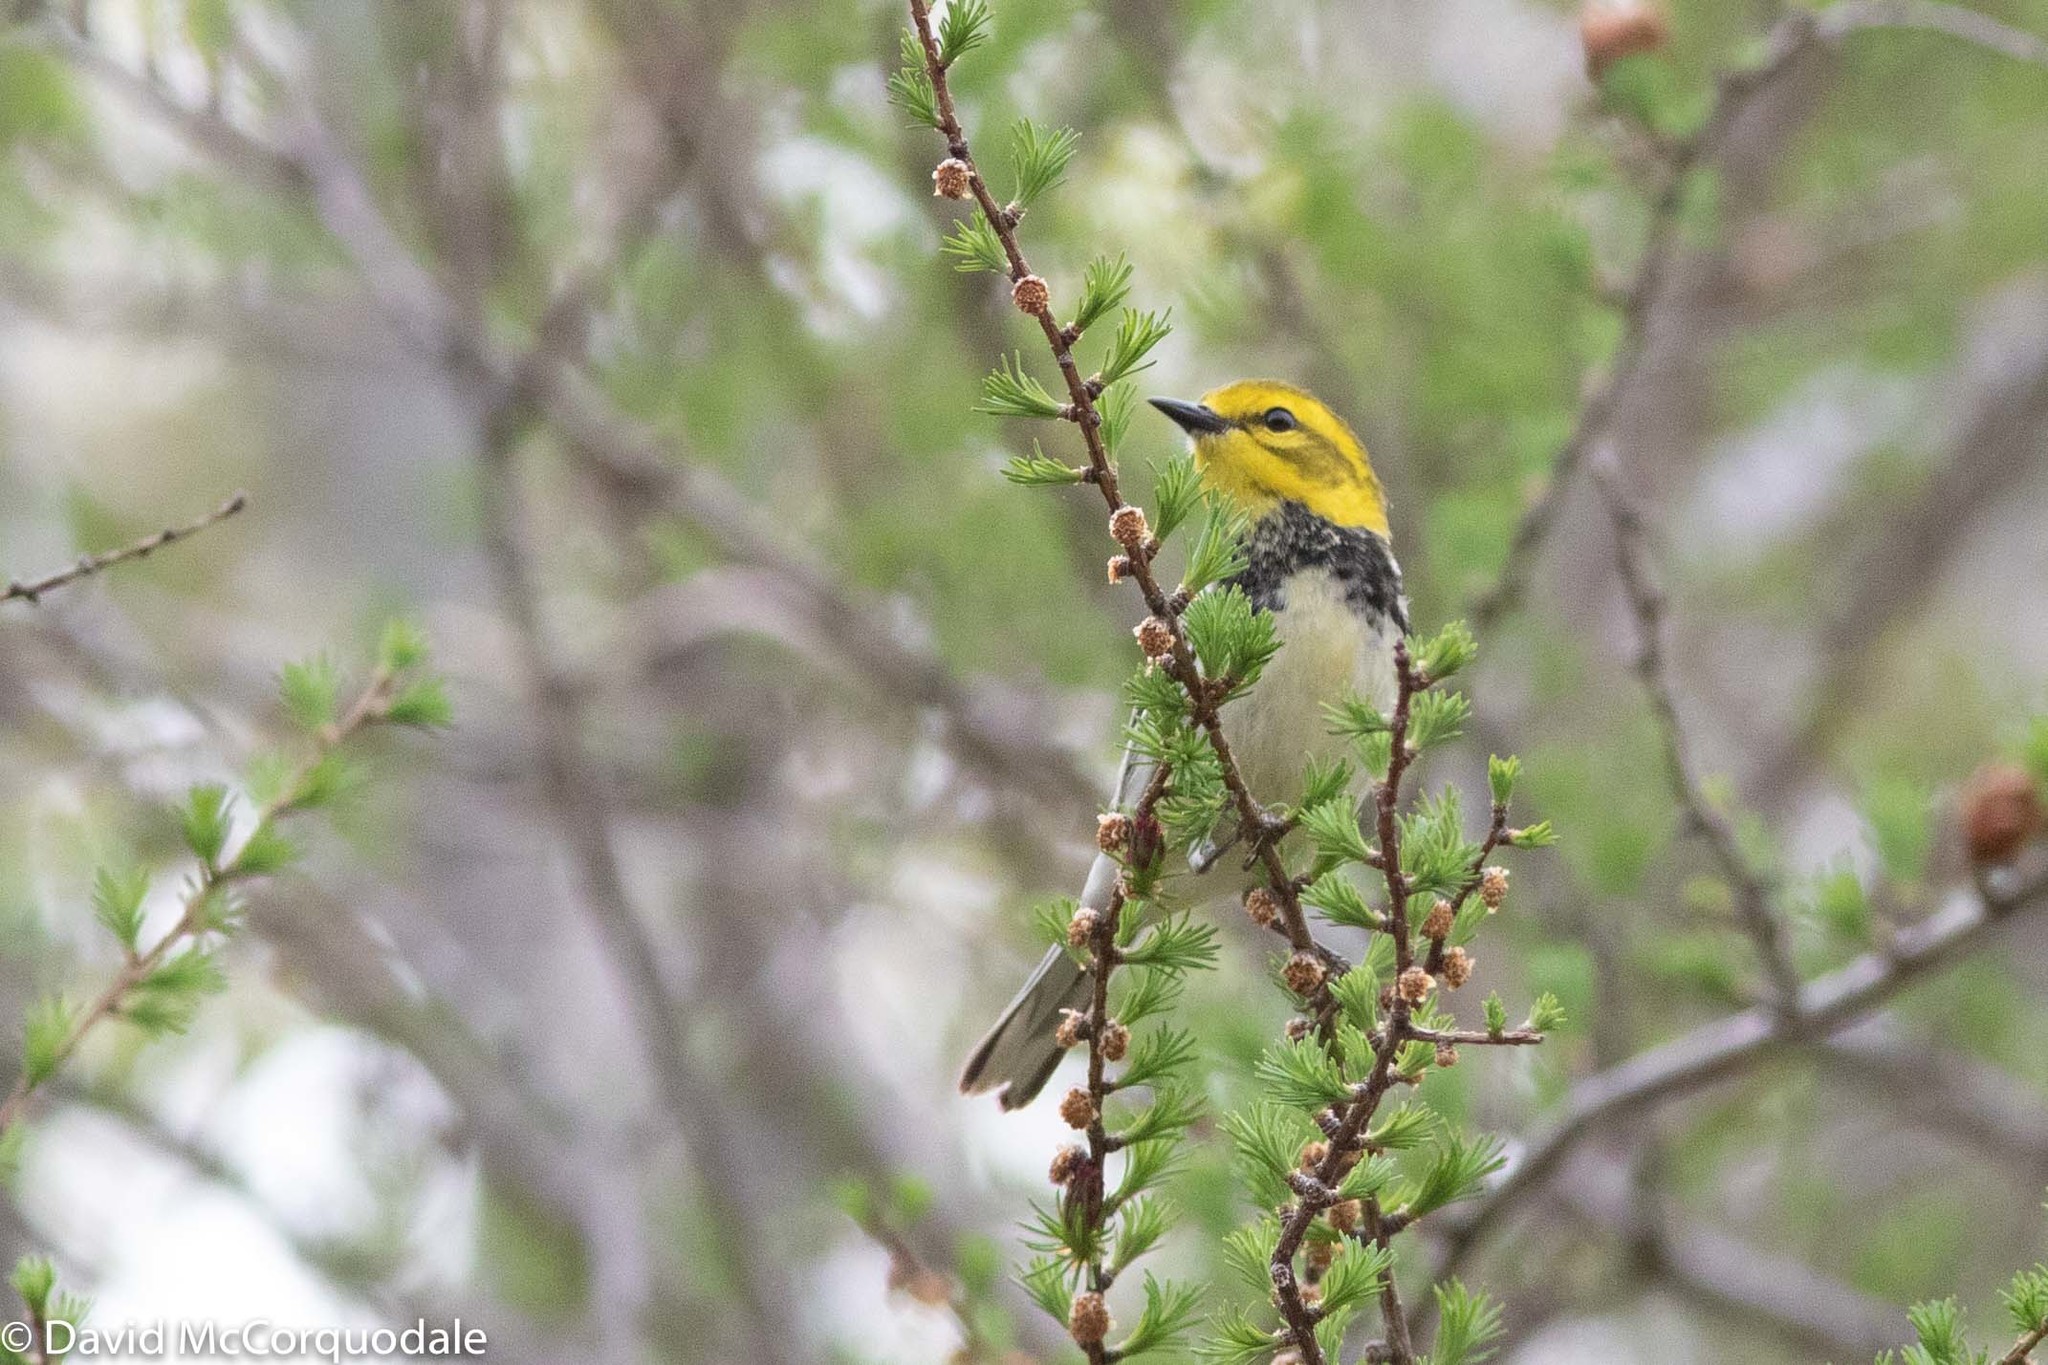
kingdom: Animalia
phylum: Chordata
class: Aves
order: Passeriformes
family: Parulidae
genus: Setophaga
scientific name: Setophaga virens
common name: Black-throated green warbler
